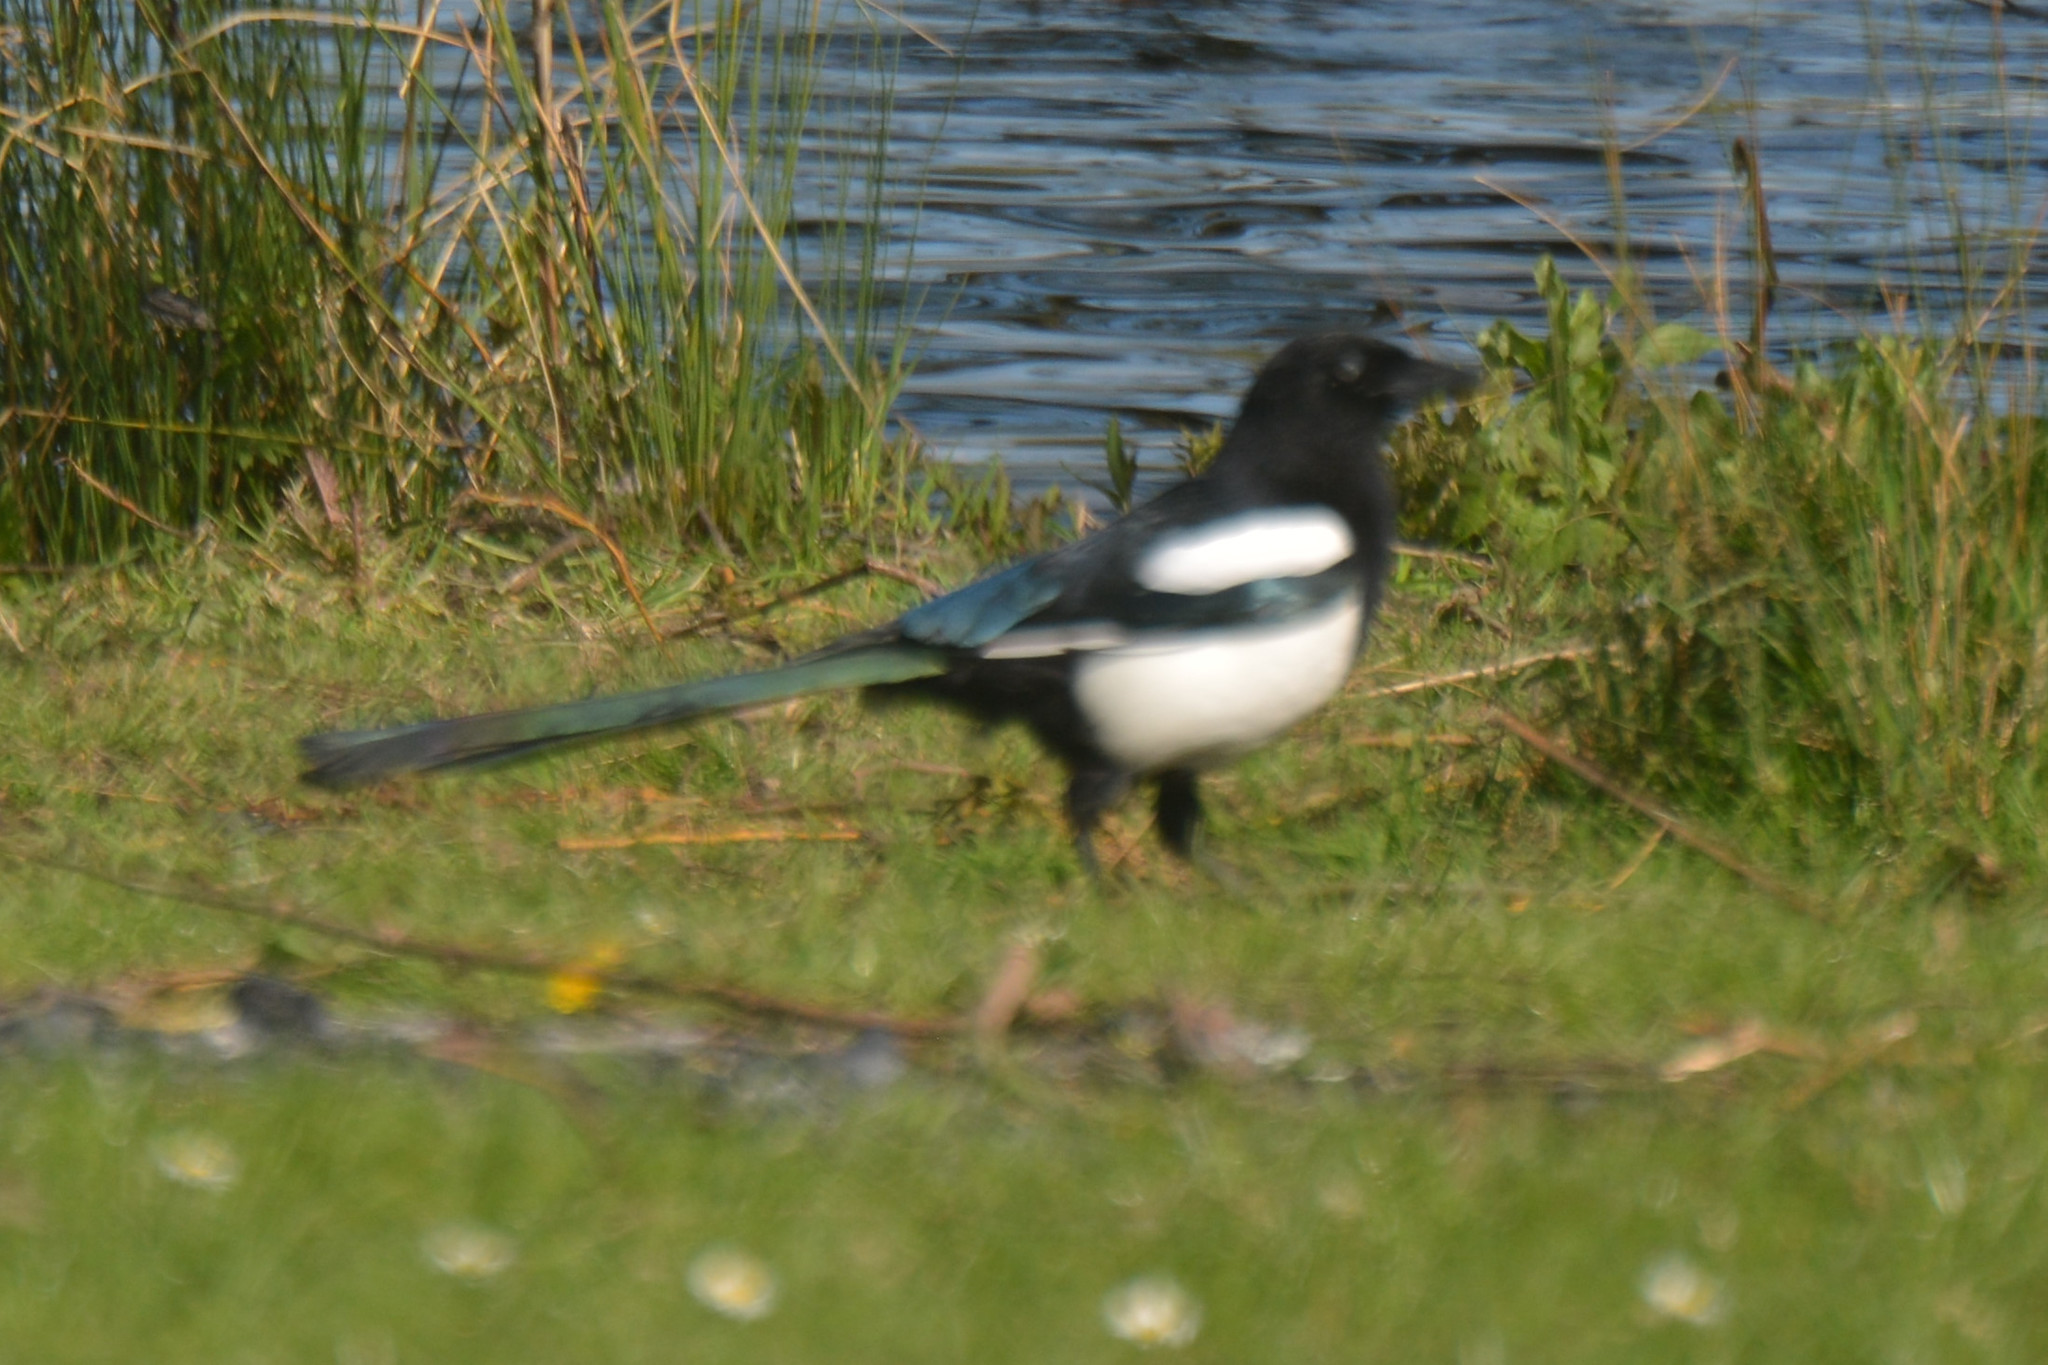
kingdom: Animalia
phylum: Chordata
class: Aves
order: Passeriformes
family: Corvidae
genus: Pica
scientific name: Pica pica
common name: Eurasian magpie
